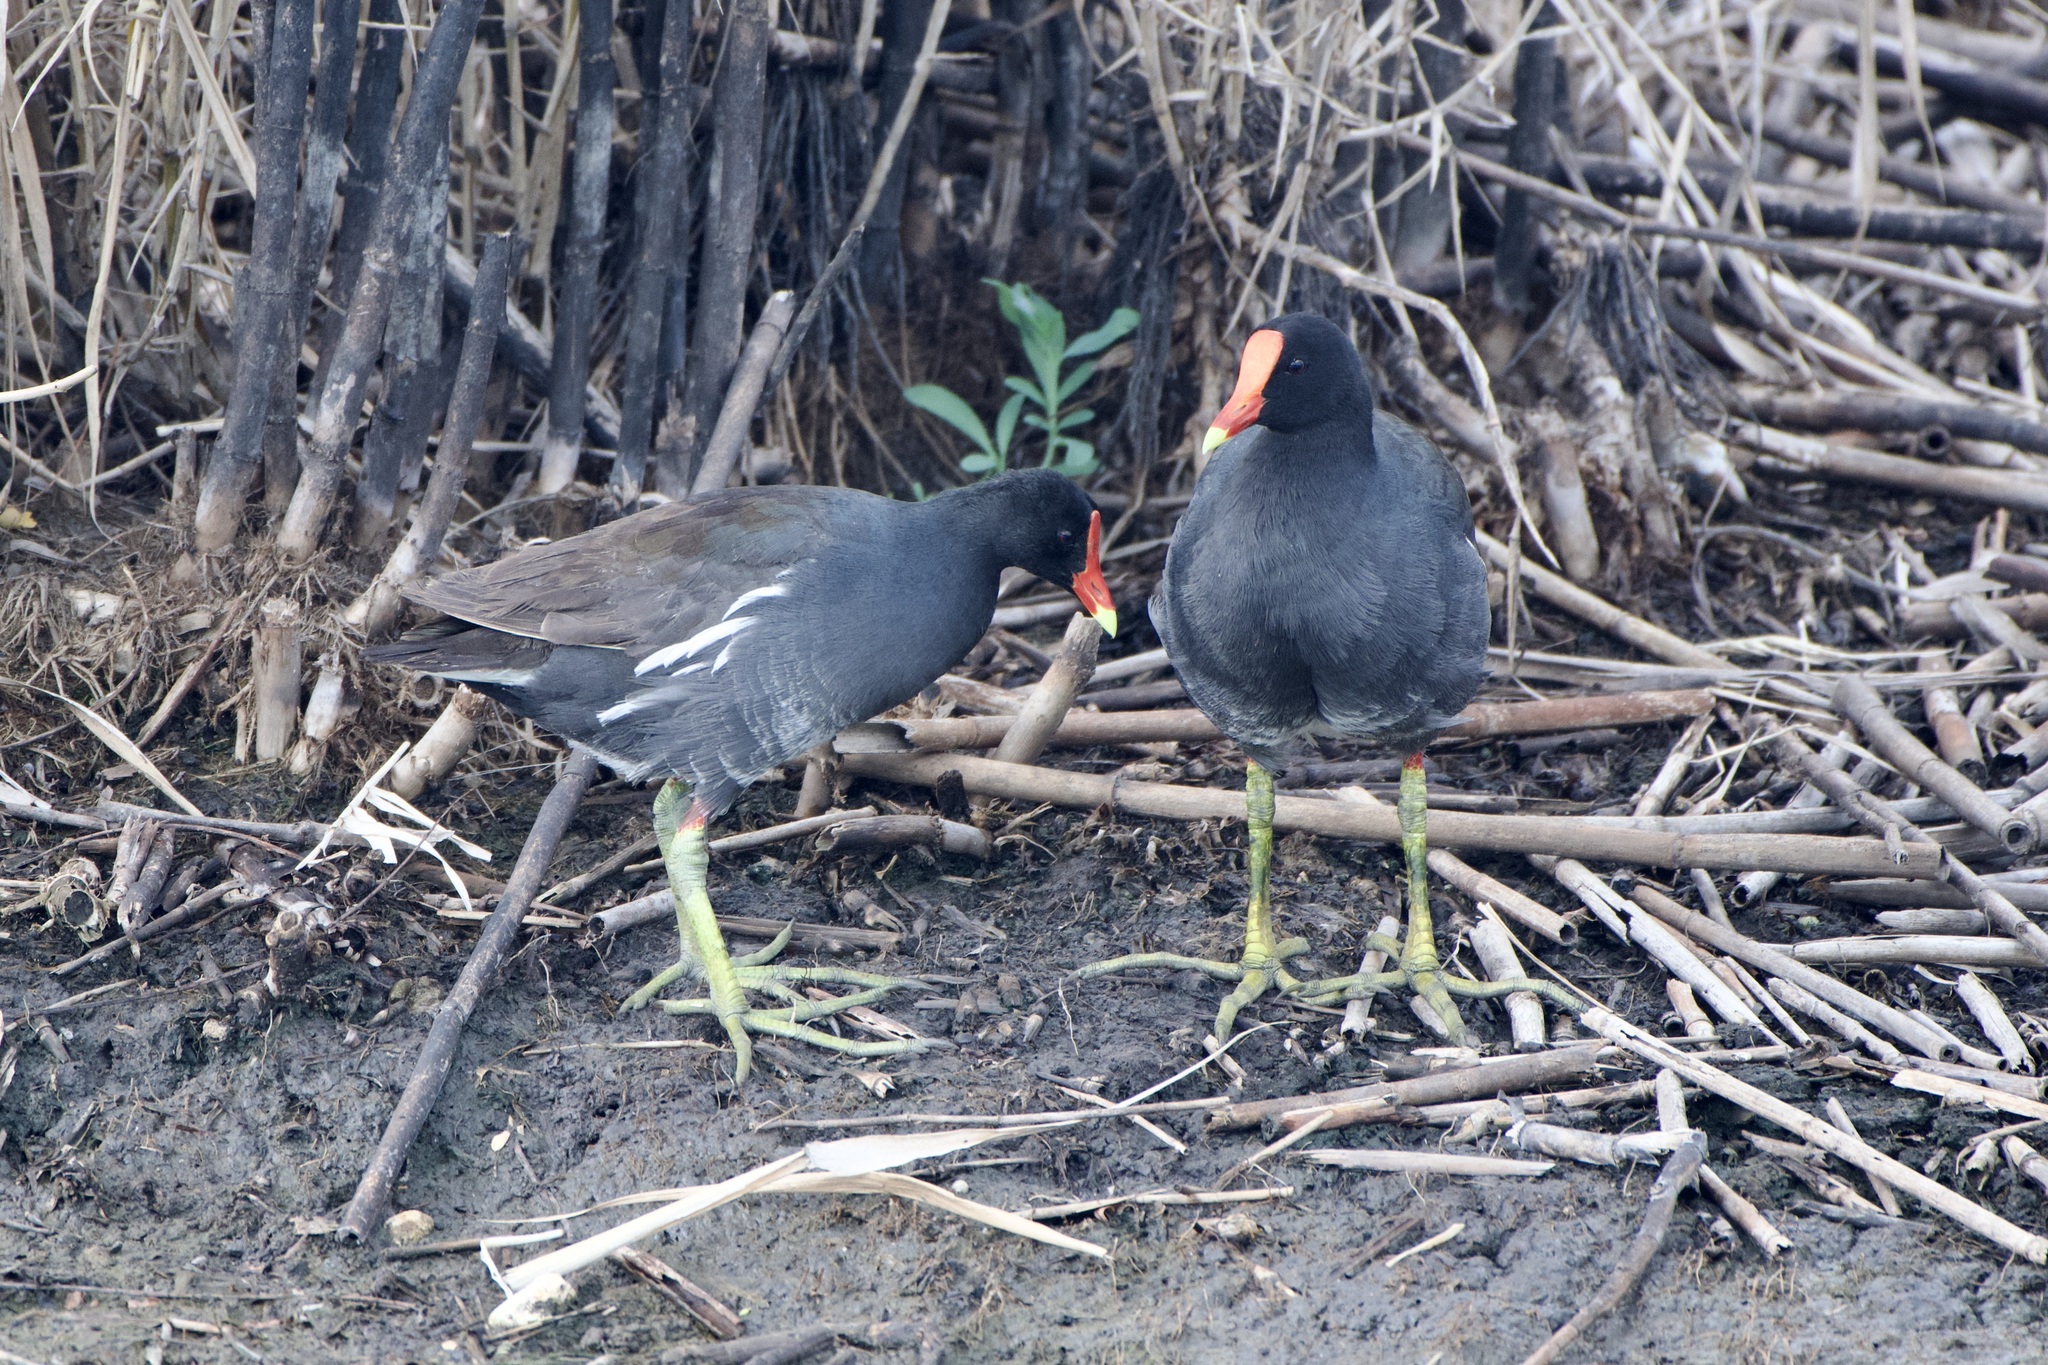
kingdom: Animalia
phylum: Chordata
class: Aves
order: Gruiformes
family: Rallidae
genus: Gallinula
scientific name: Gallinula chloropus
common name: Common moorhen
